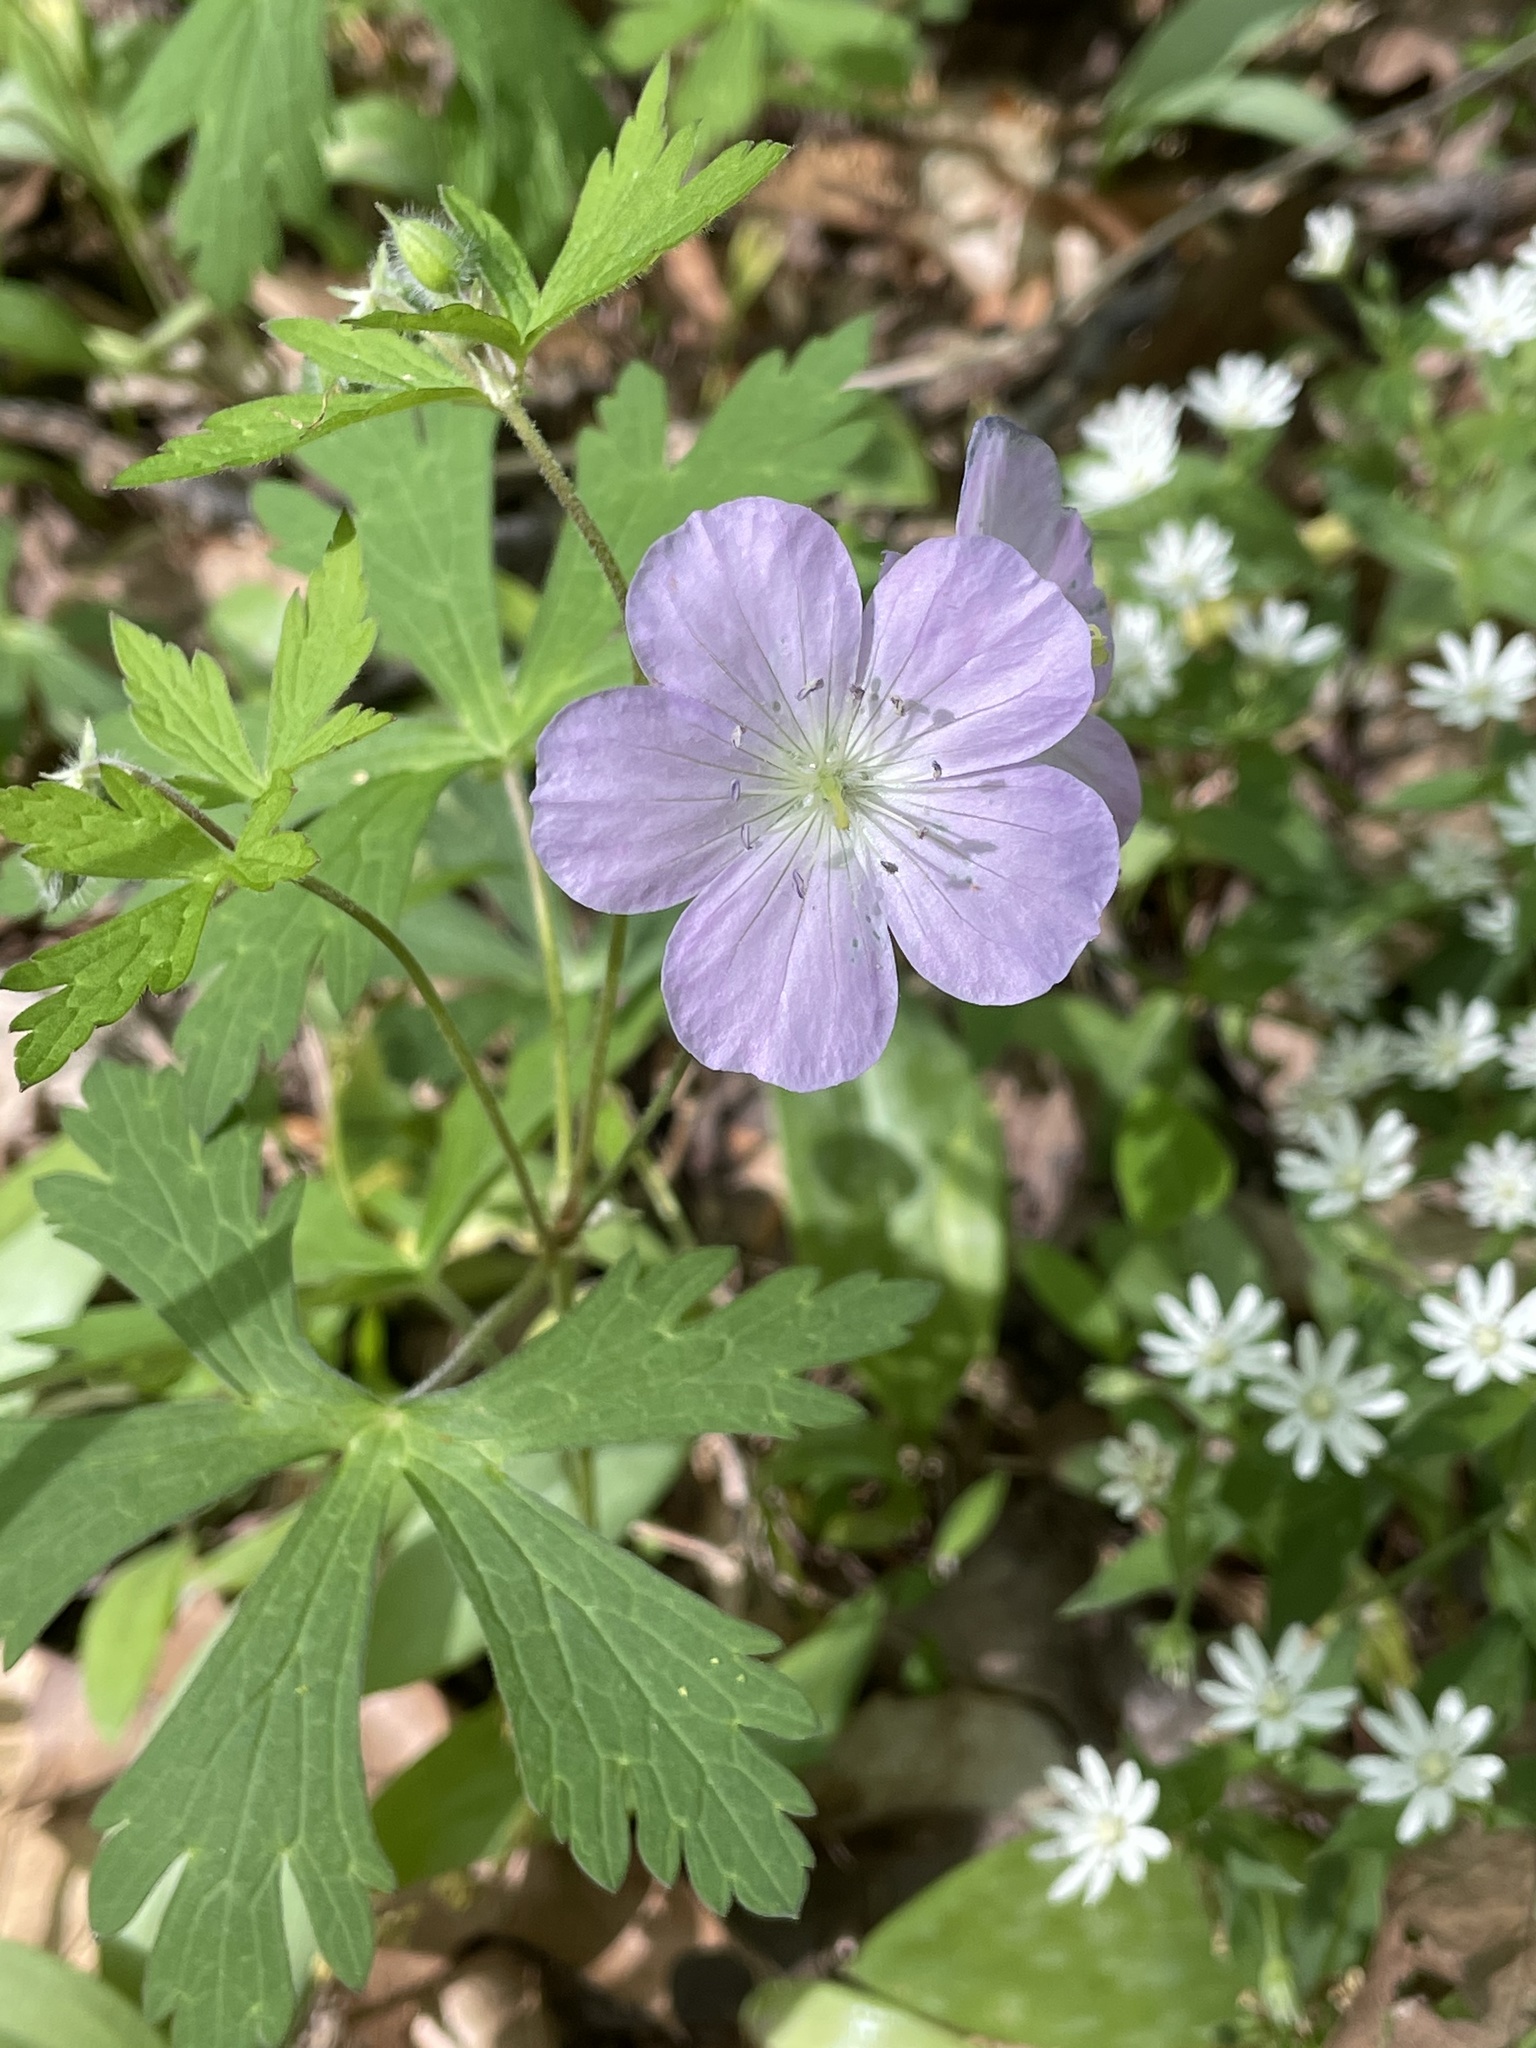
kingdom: Plantae
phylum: Tracheophyta
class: Magnoliopsida
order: Geraniales
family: Geraniaceae
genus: Geranium
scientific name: Geranium maculatum
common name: Spotted geranium
